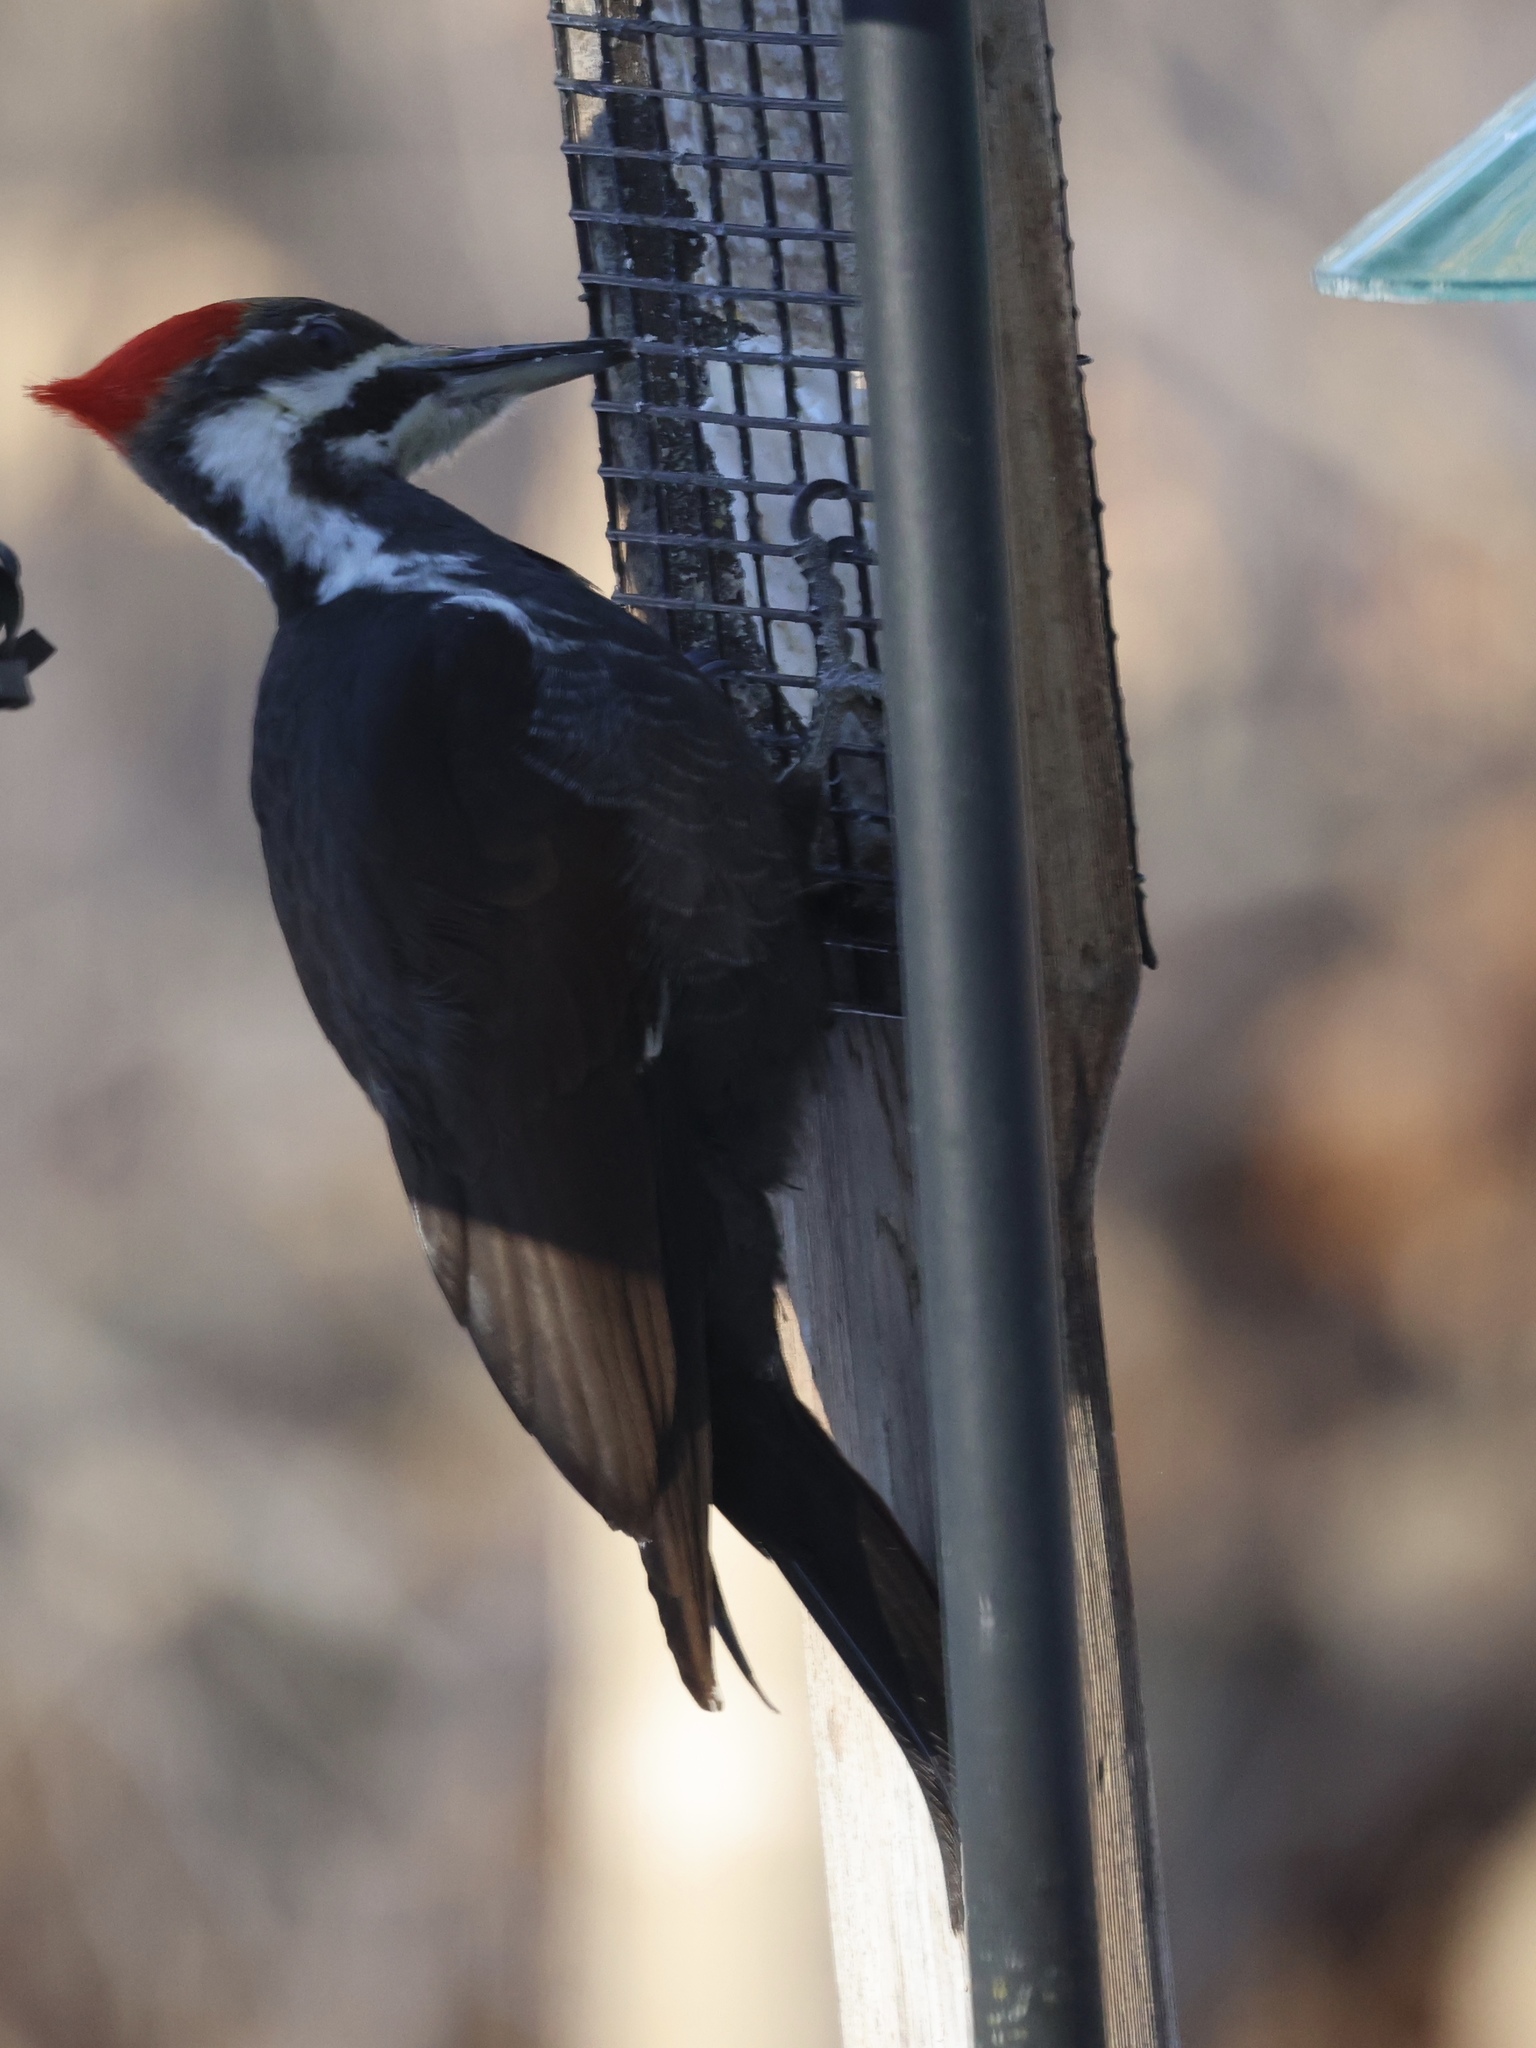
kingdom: Animalia
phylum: Chordata
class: Aves
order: Piciformes
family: Picidae
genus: Dryocopus
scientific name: Dryocopus pileatus
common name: Pileated woodpecker
